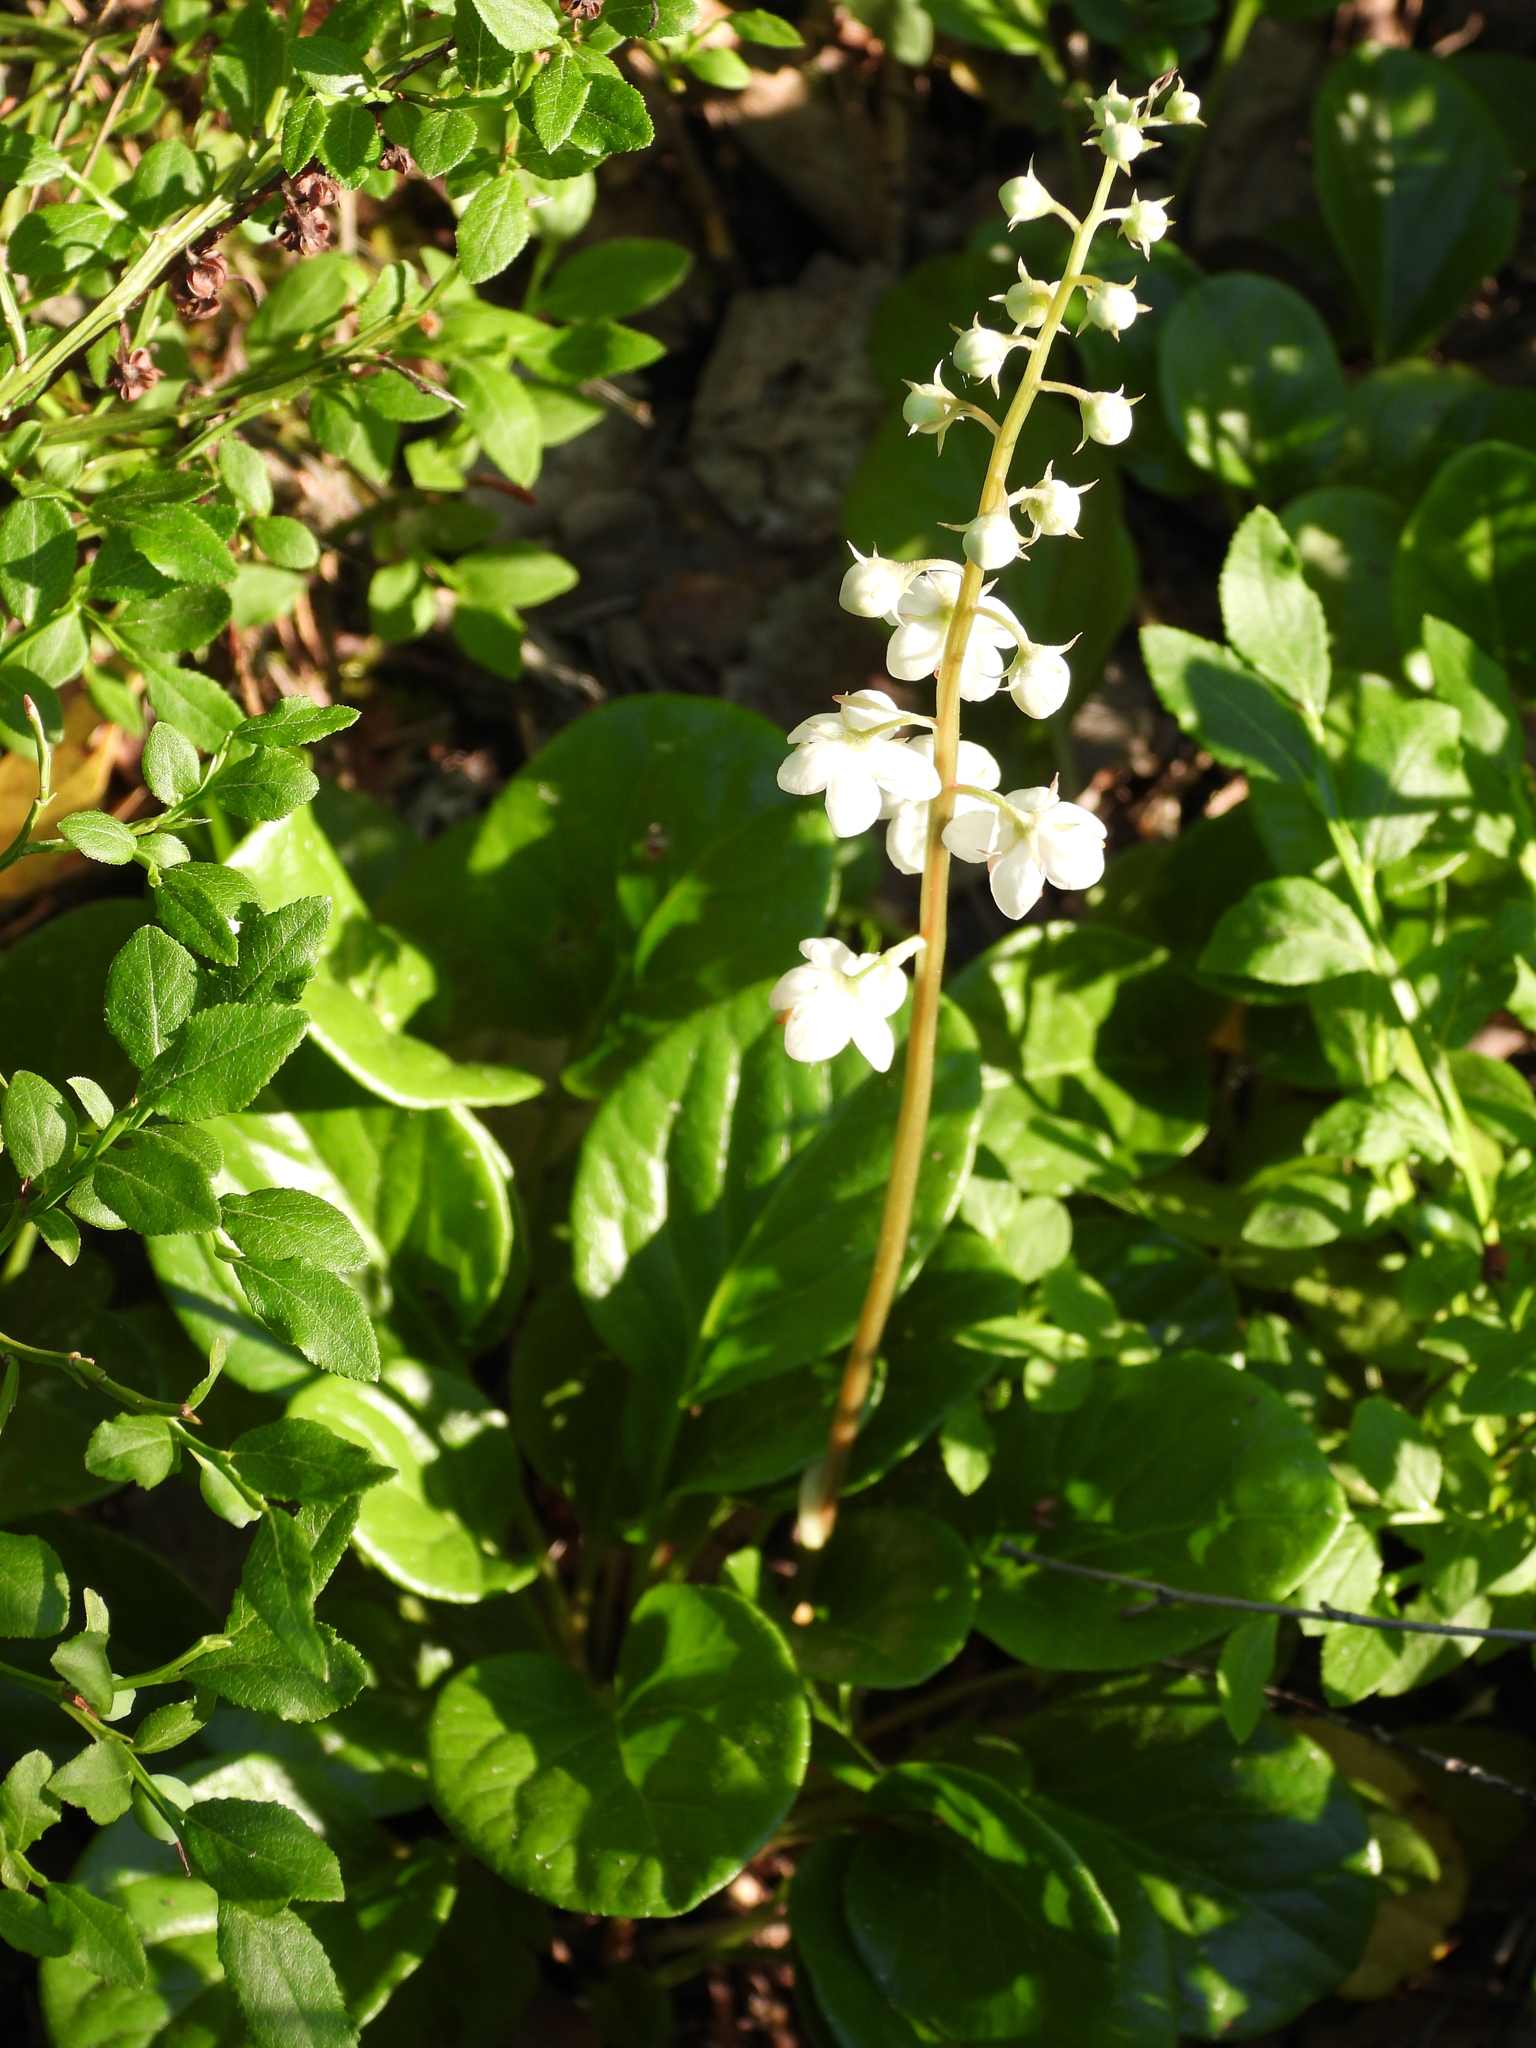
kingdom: Plantae
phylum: Tracheophyta
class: Magnoliopsida
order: Ericales
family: Ericaceae
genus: Pyrola
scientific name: Pyrola rotundifolia
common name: Round-leaved wintergreen
